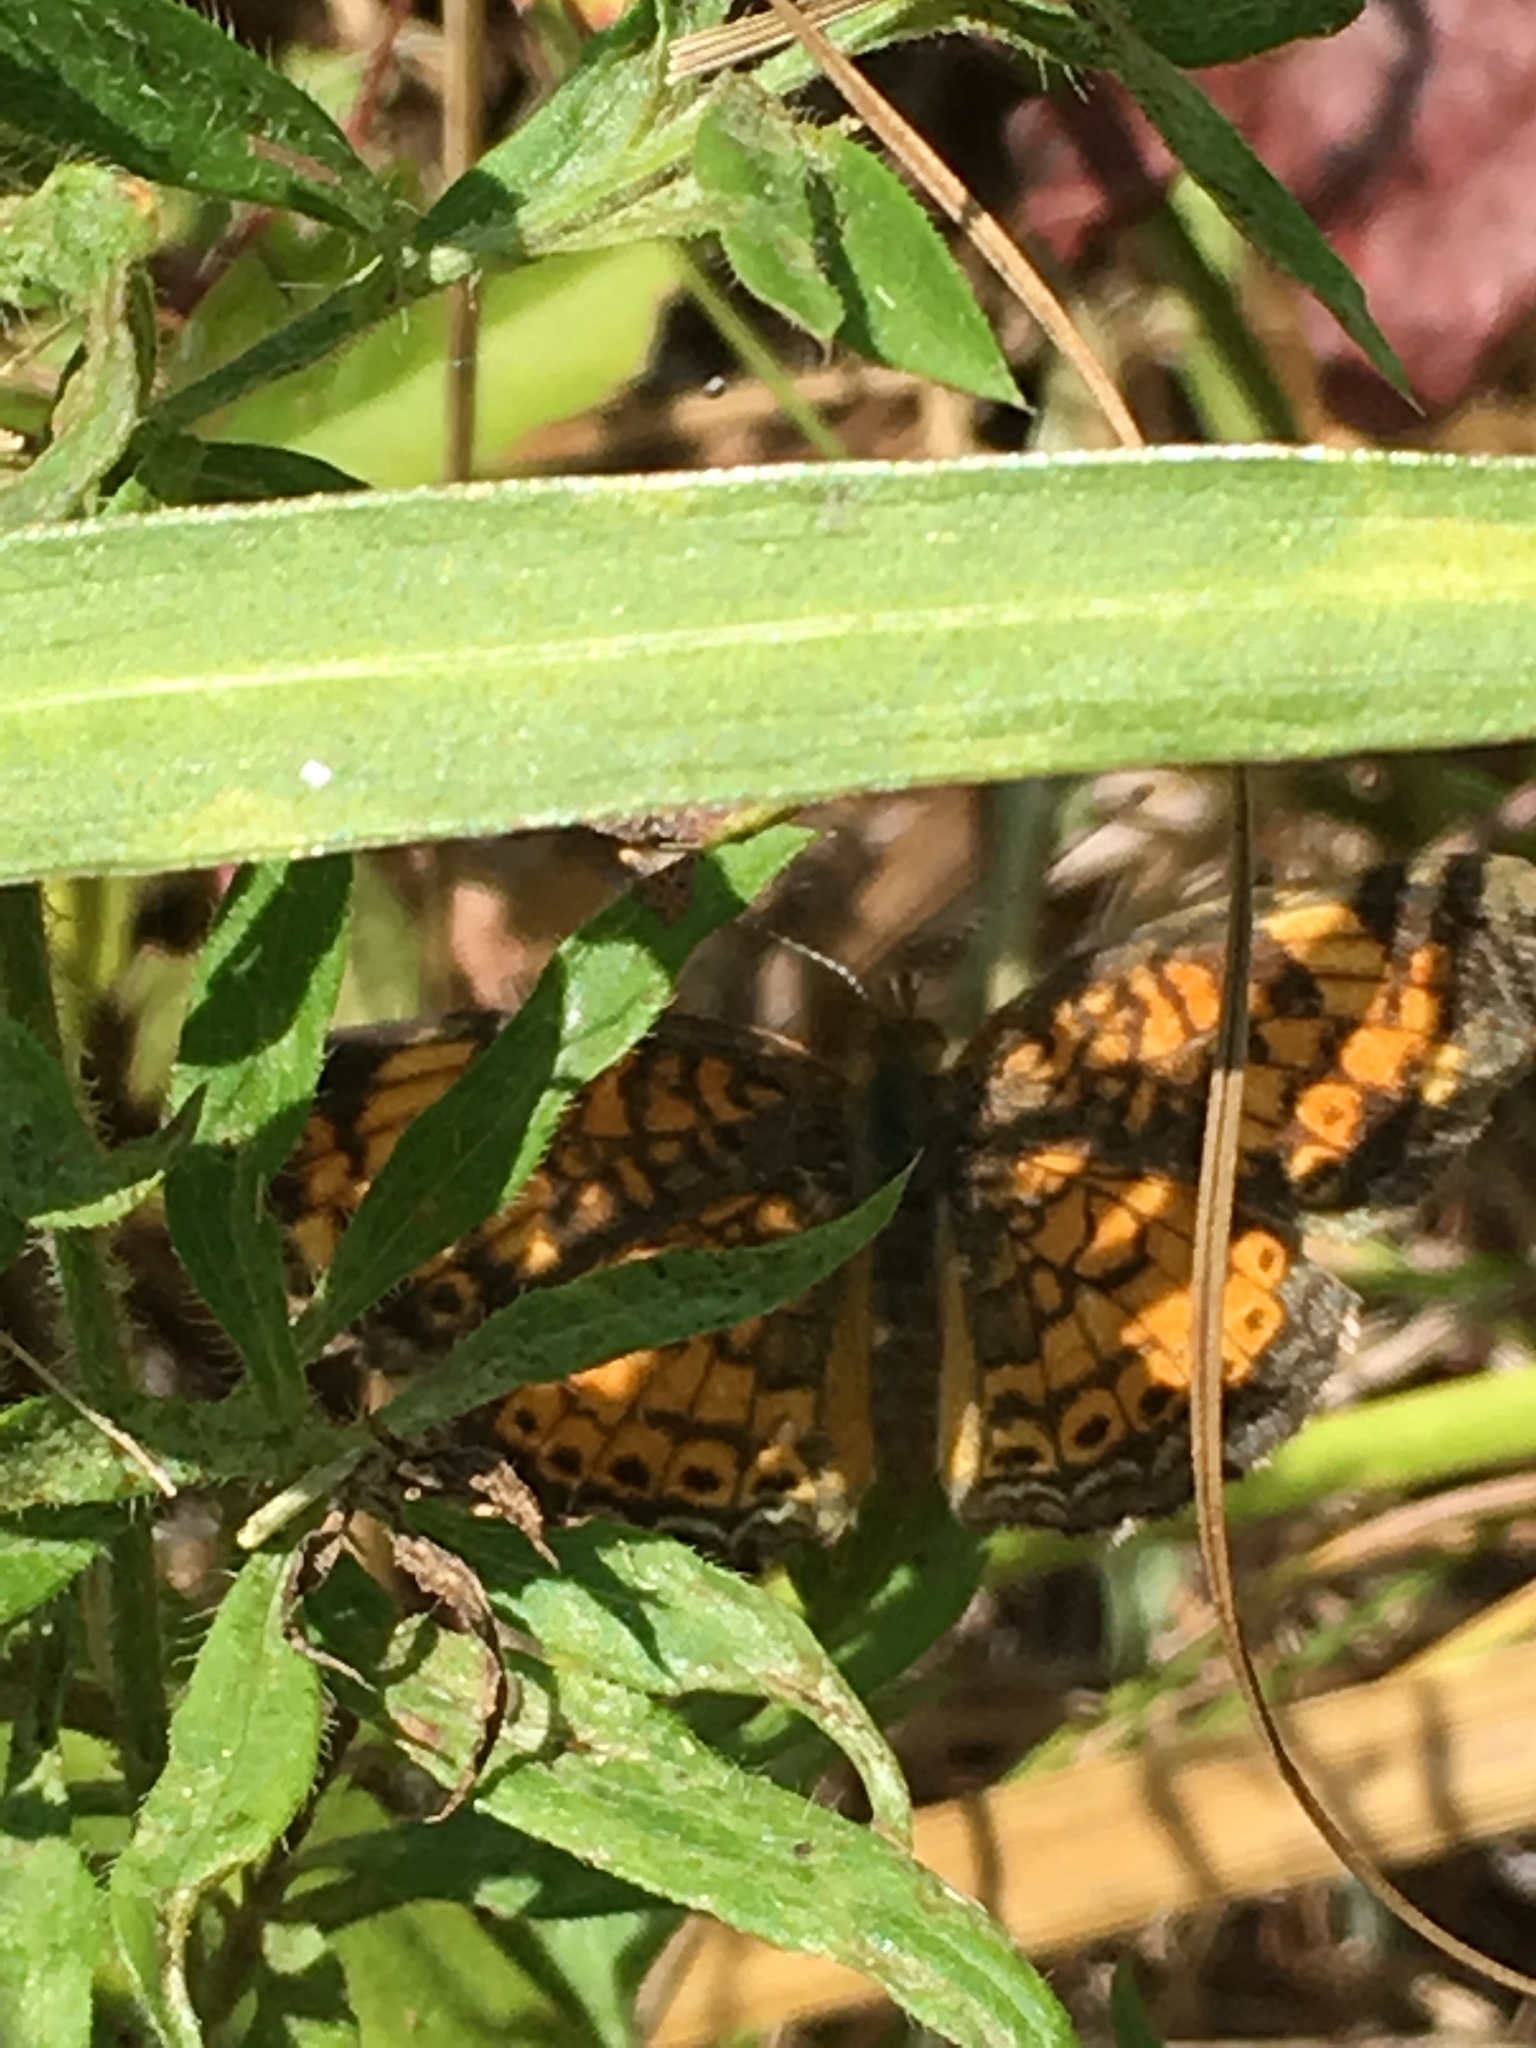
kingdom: Animalia
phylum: Arthropoda
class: Insecta
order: Lepidoptera
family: Nymphalidae
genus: Phyciodes
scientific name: Phyciodes tharos
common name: Pearl crescent
